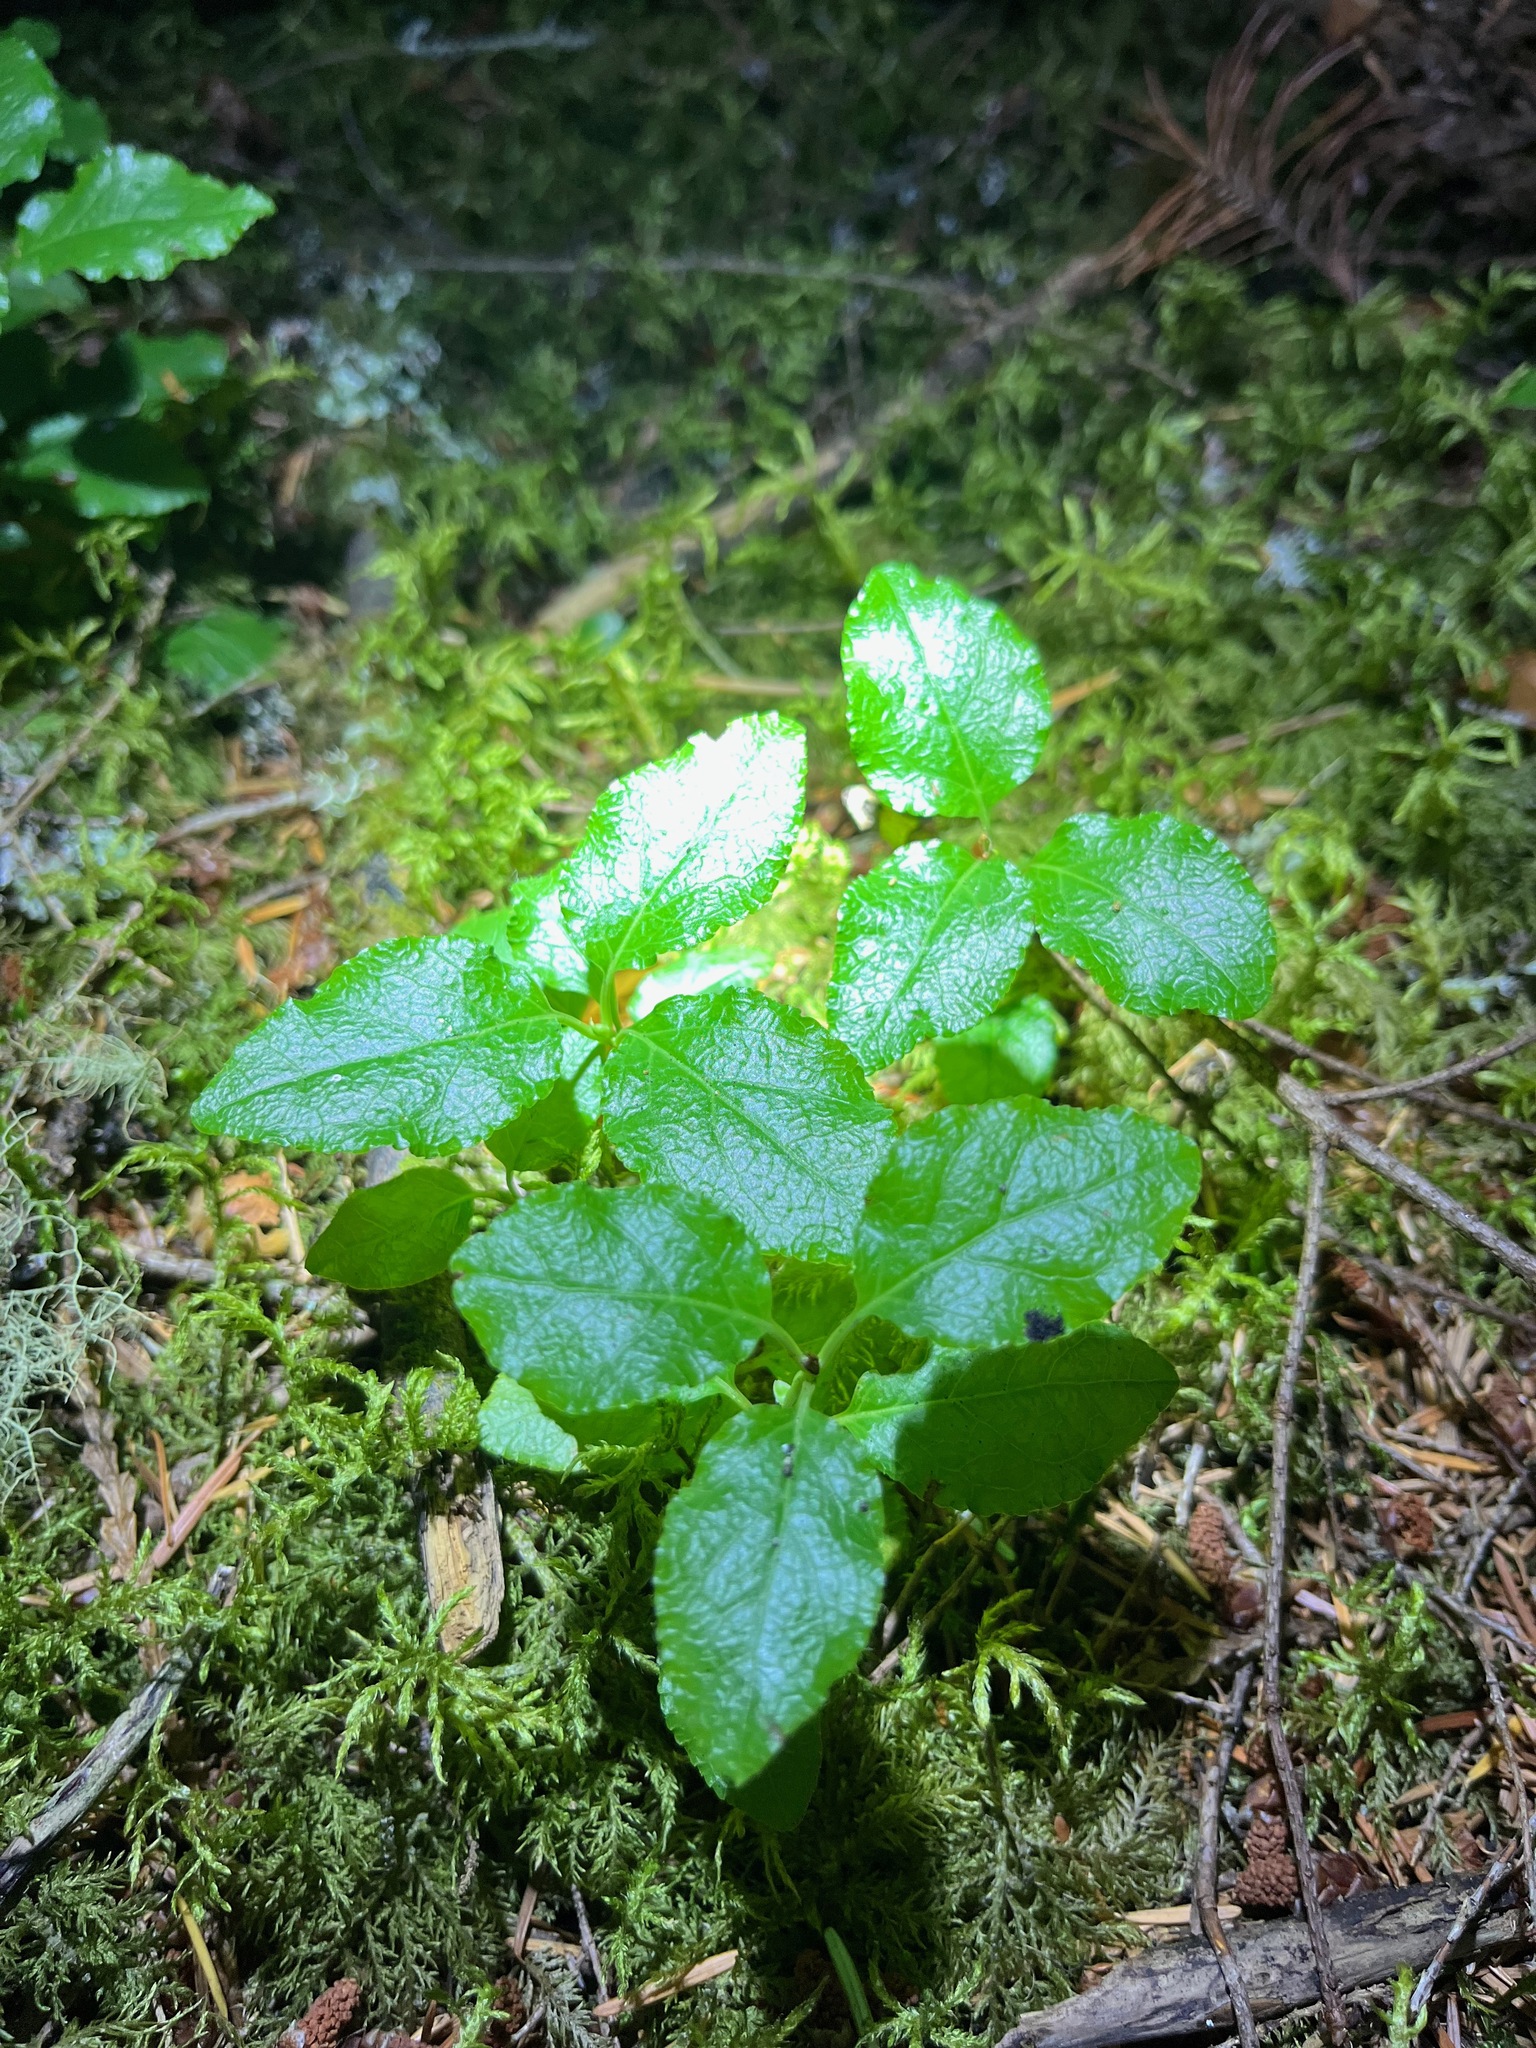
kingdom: Plantae
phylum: Tracheophyta
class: Magnoliopsida
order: Ericales
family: Ericaceae
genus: Orthilia
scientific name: Orthilia secunda
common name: One-sided orthilia
